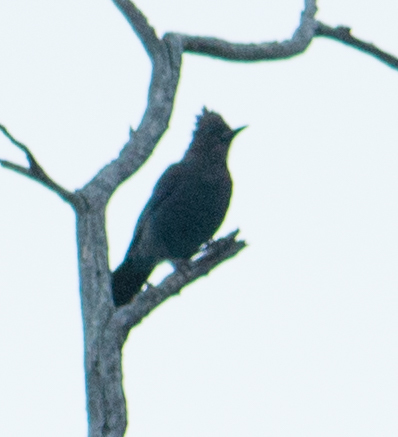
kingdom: Animalia
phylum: Chordata
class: Aves
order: Passeriformes
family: Ptilogonatidae
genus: Phainopepla
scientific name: Phainopepla nitens
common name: Phainopepla
